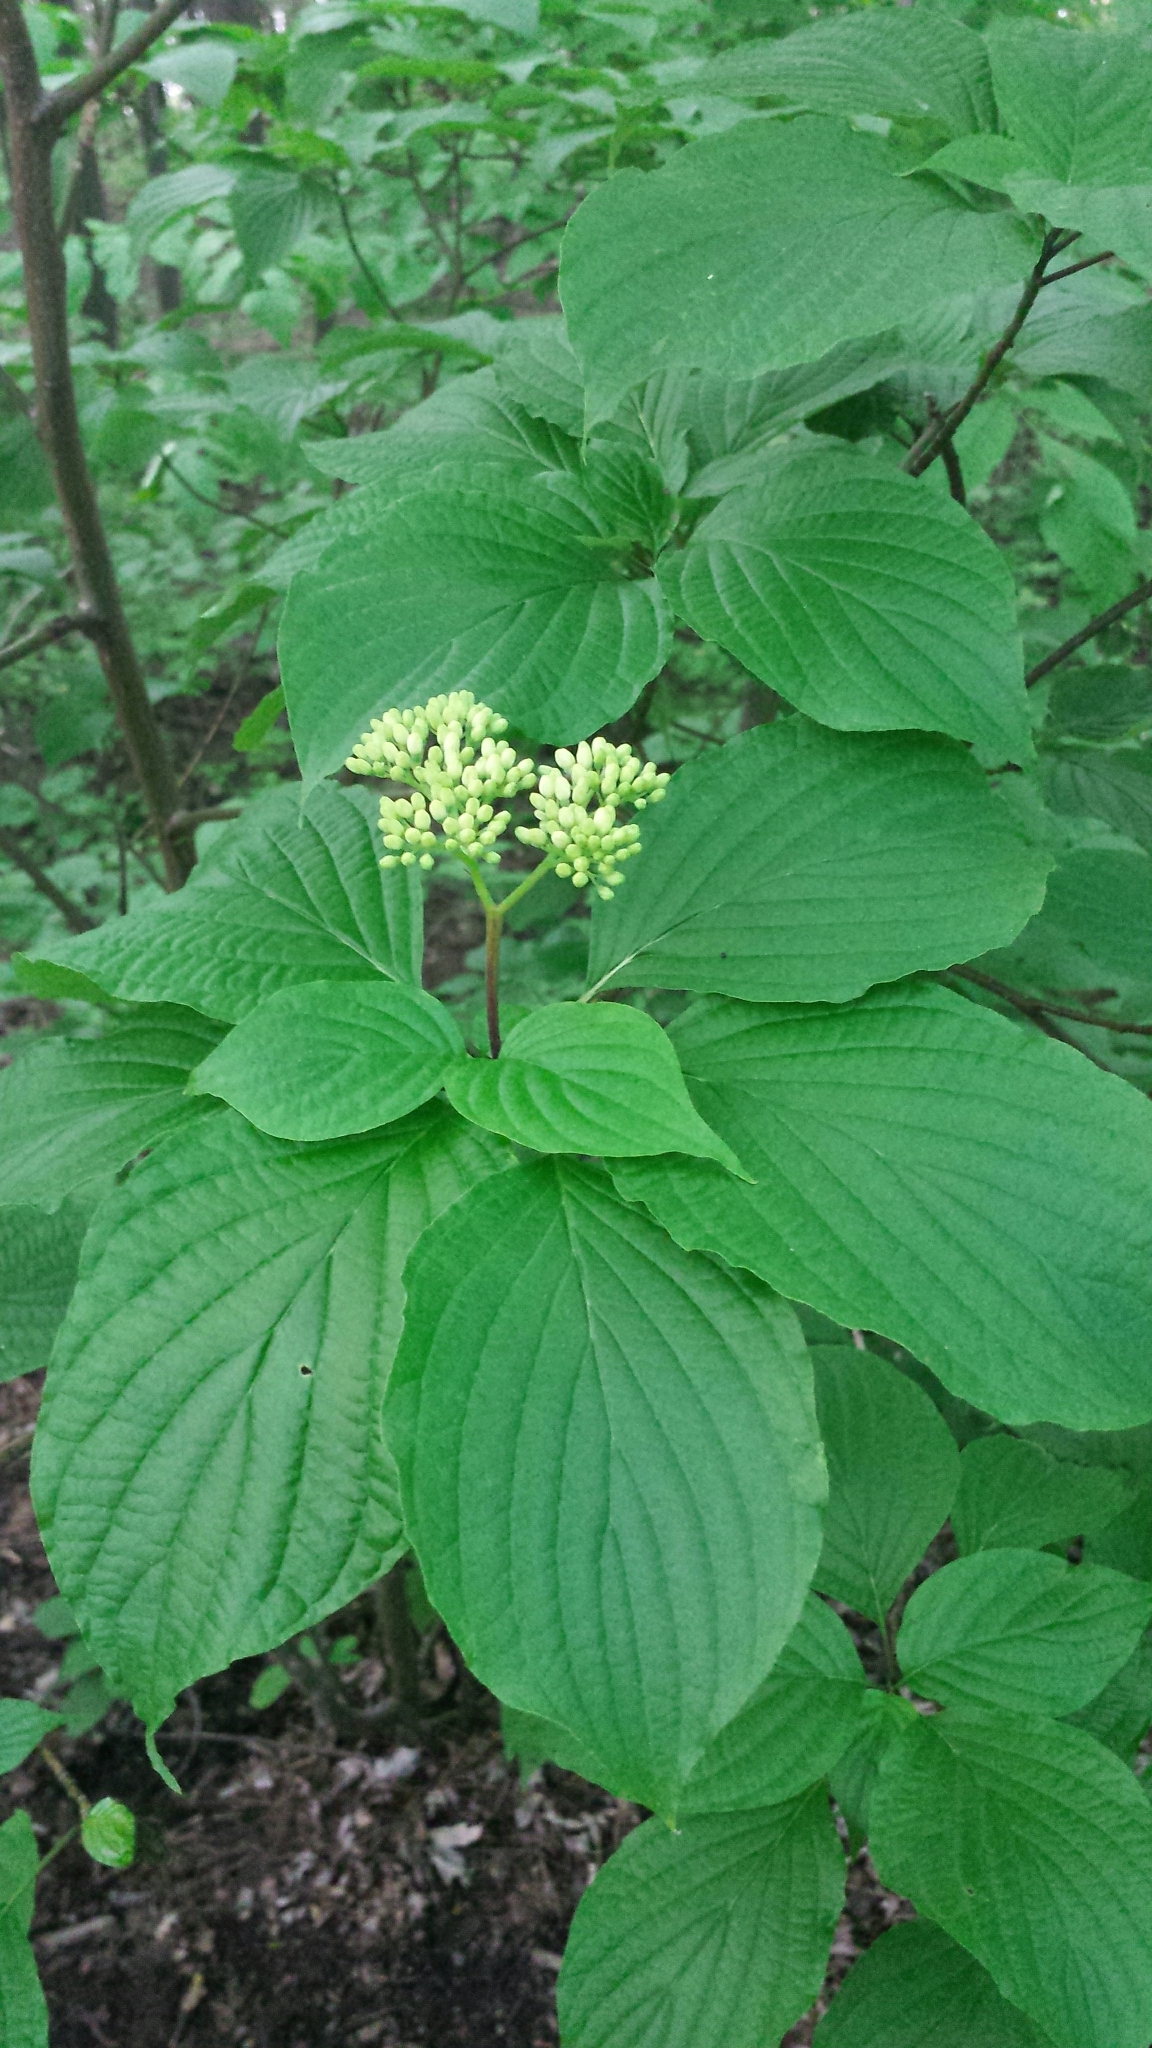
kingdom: Plantae
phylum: Tracheophyta
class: Magnoliopsida
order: Cornales
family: Cornaceae
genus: Cornus
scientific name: Cornus alternifolia
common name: Pagoda dogwood
